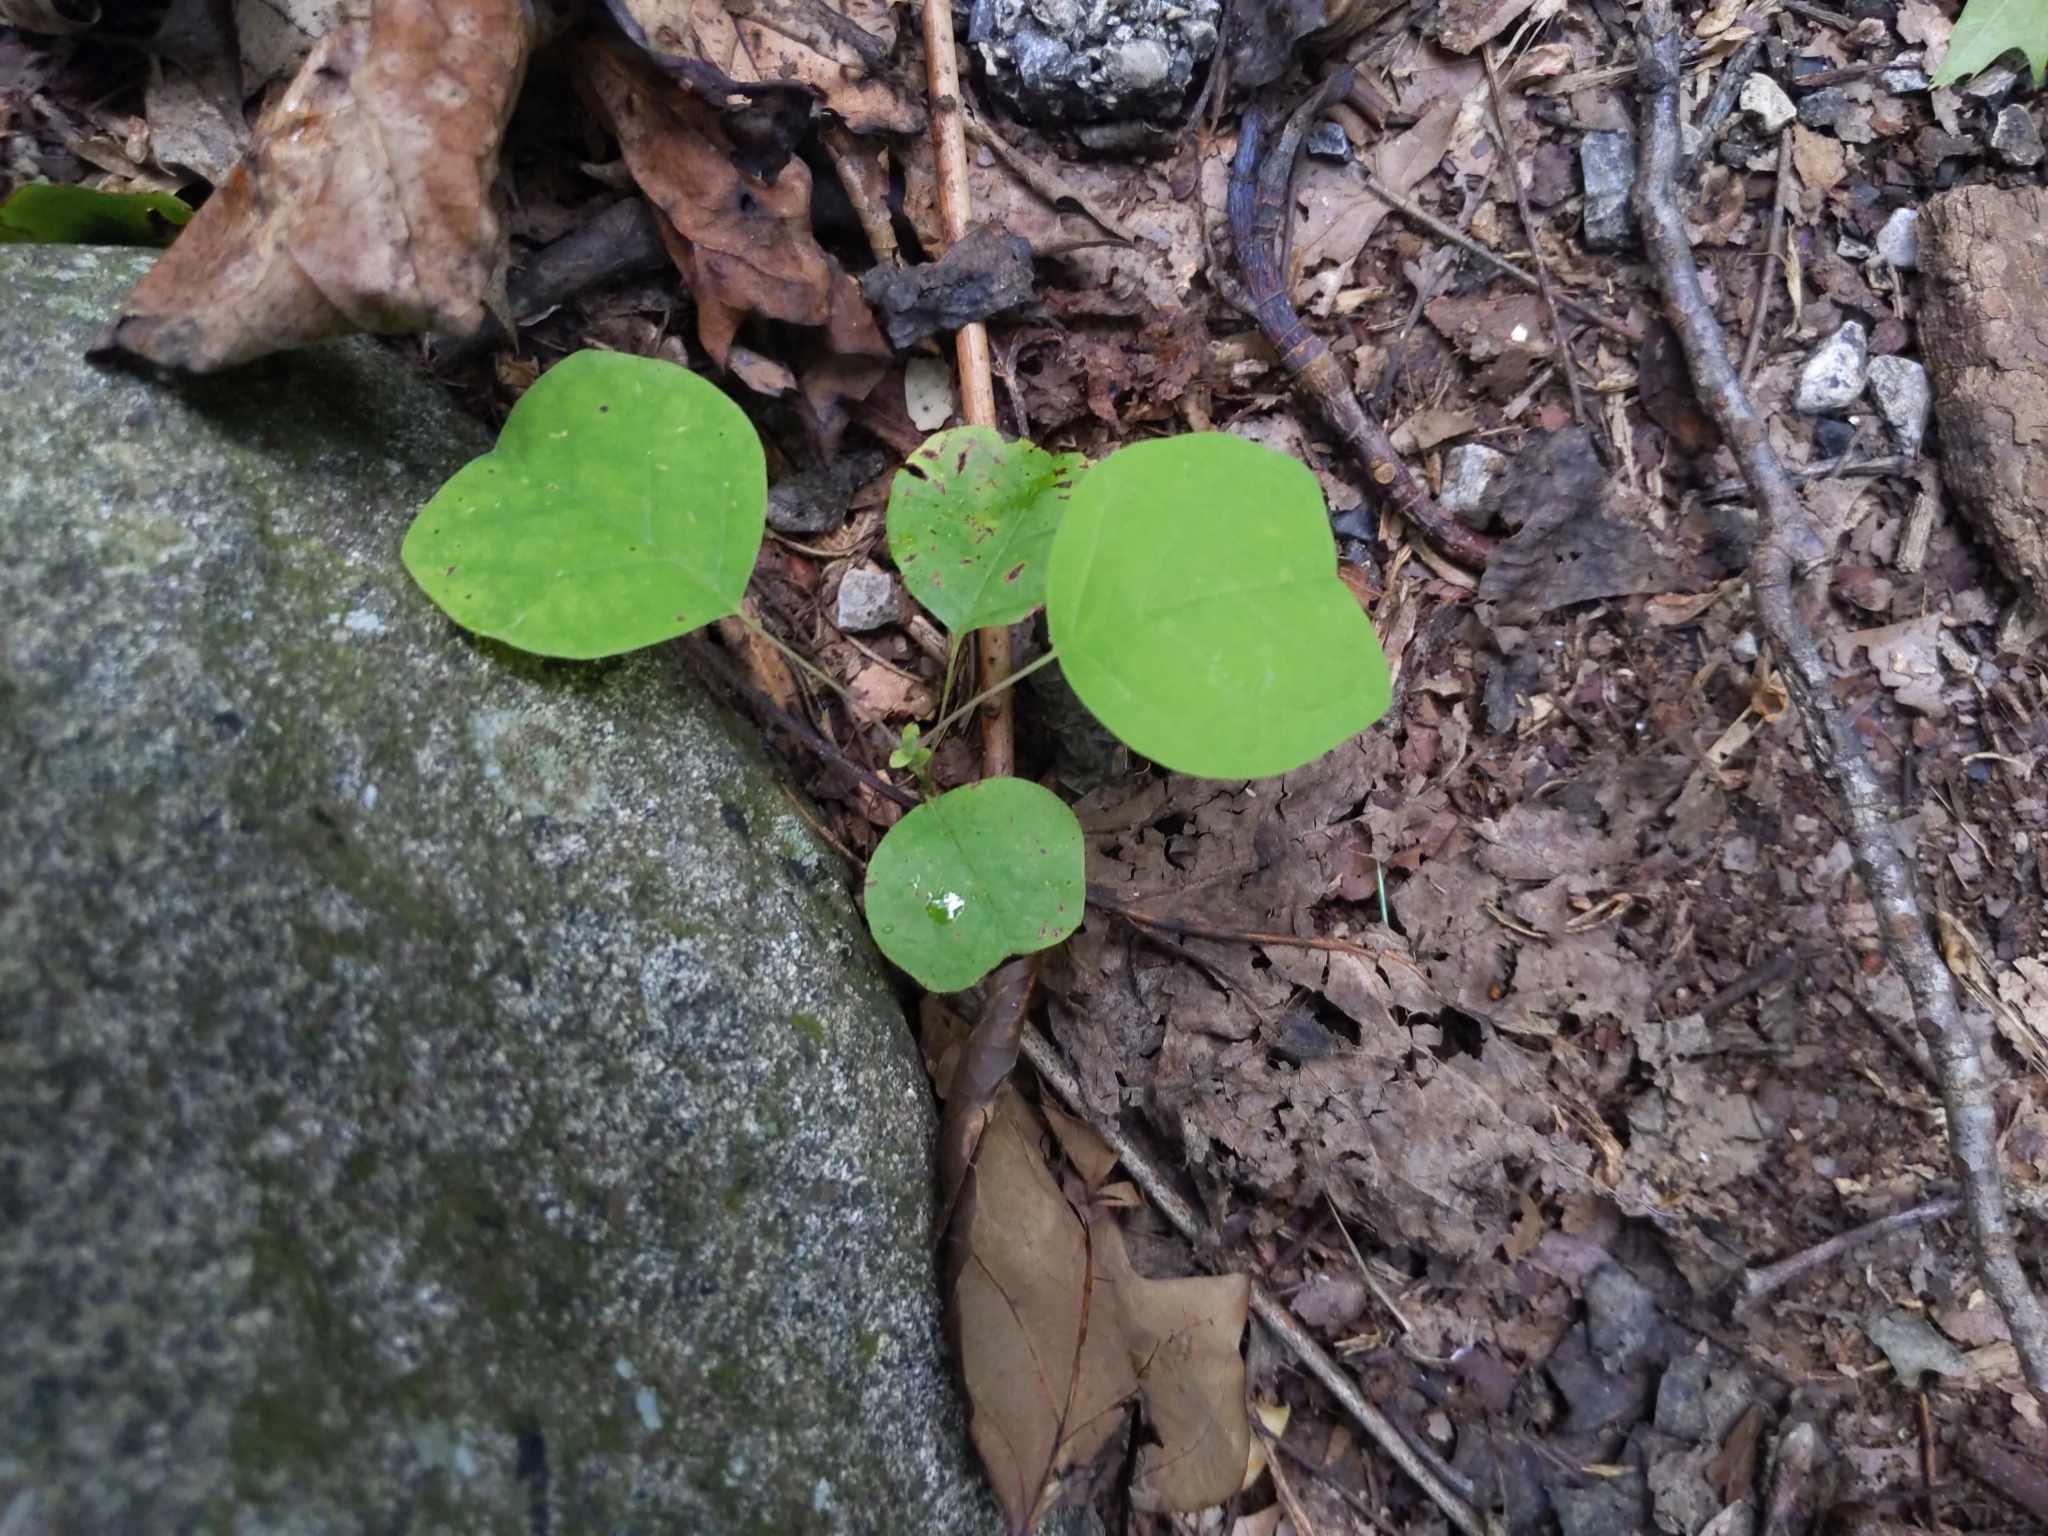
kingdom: Plantae
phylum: Tracheophyta
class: Magnoliopsida
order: Magnoliales
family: Magnoliaceae
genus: Liriodendron
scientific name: Liriodendron tulipifera
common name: Tulip tree
